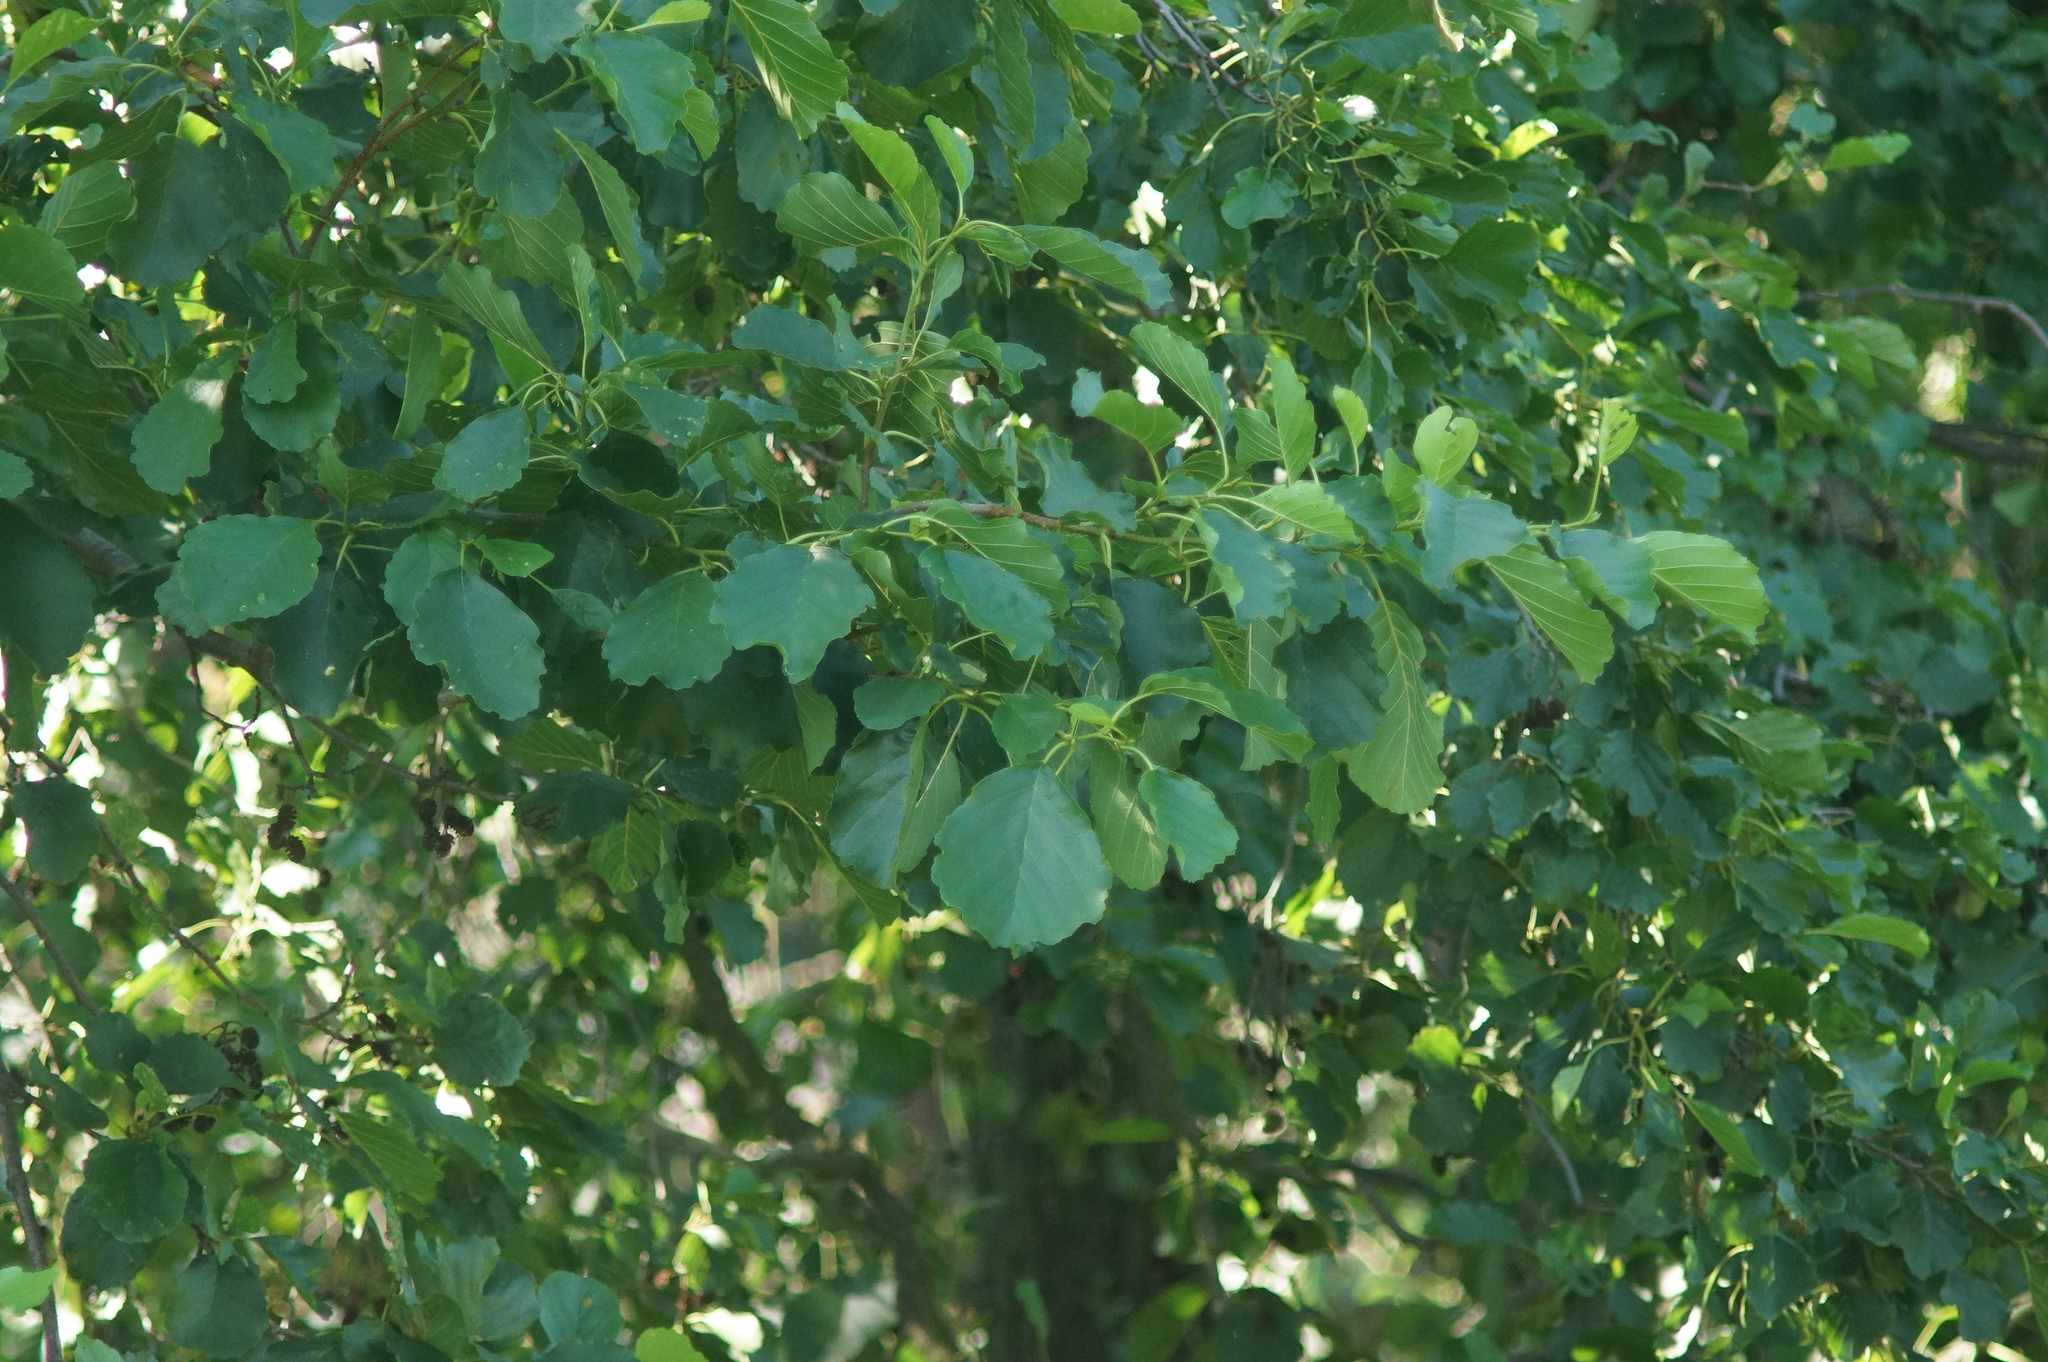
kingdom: Plantae
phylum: Tracheophyta
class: Magnoliopsida
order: Fagales
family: Betulaceae
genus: Alnus
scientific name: Alnus glutinosa
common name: Black alder
